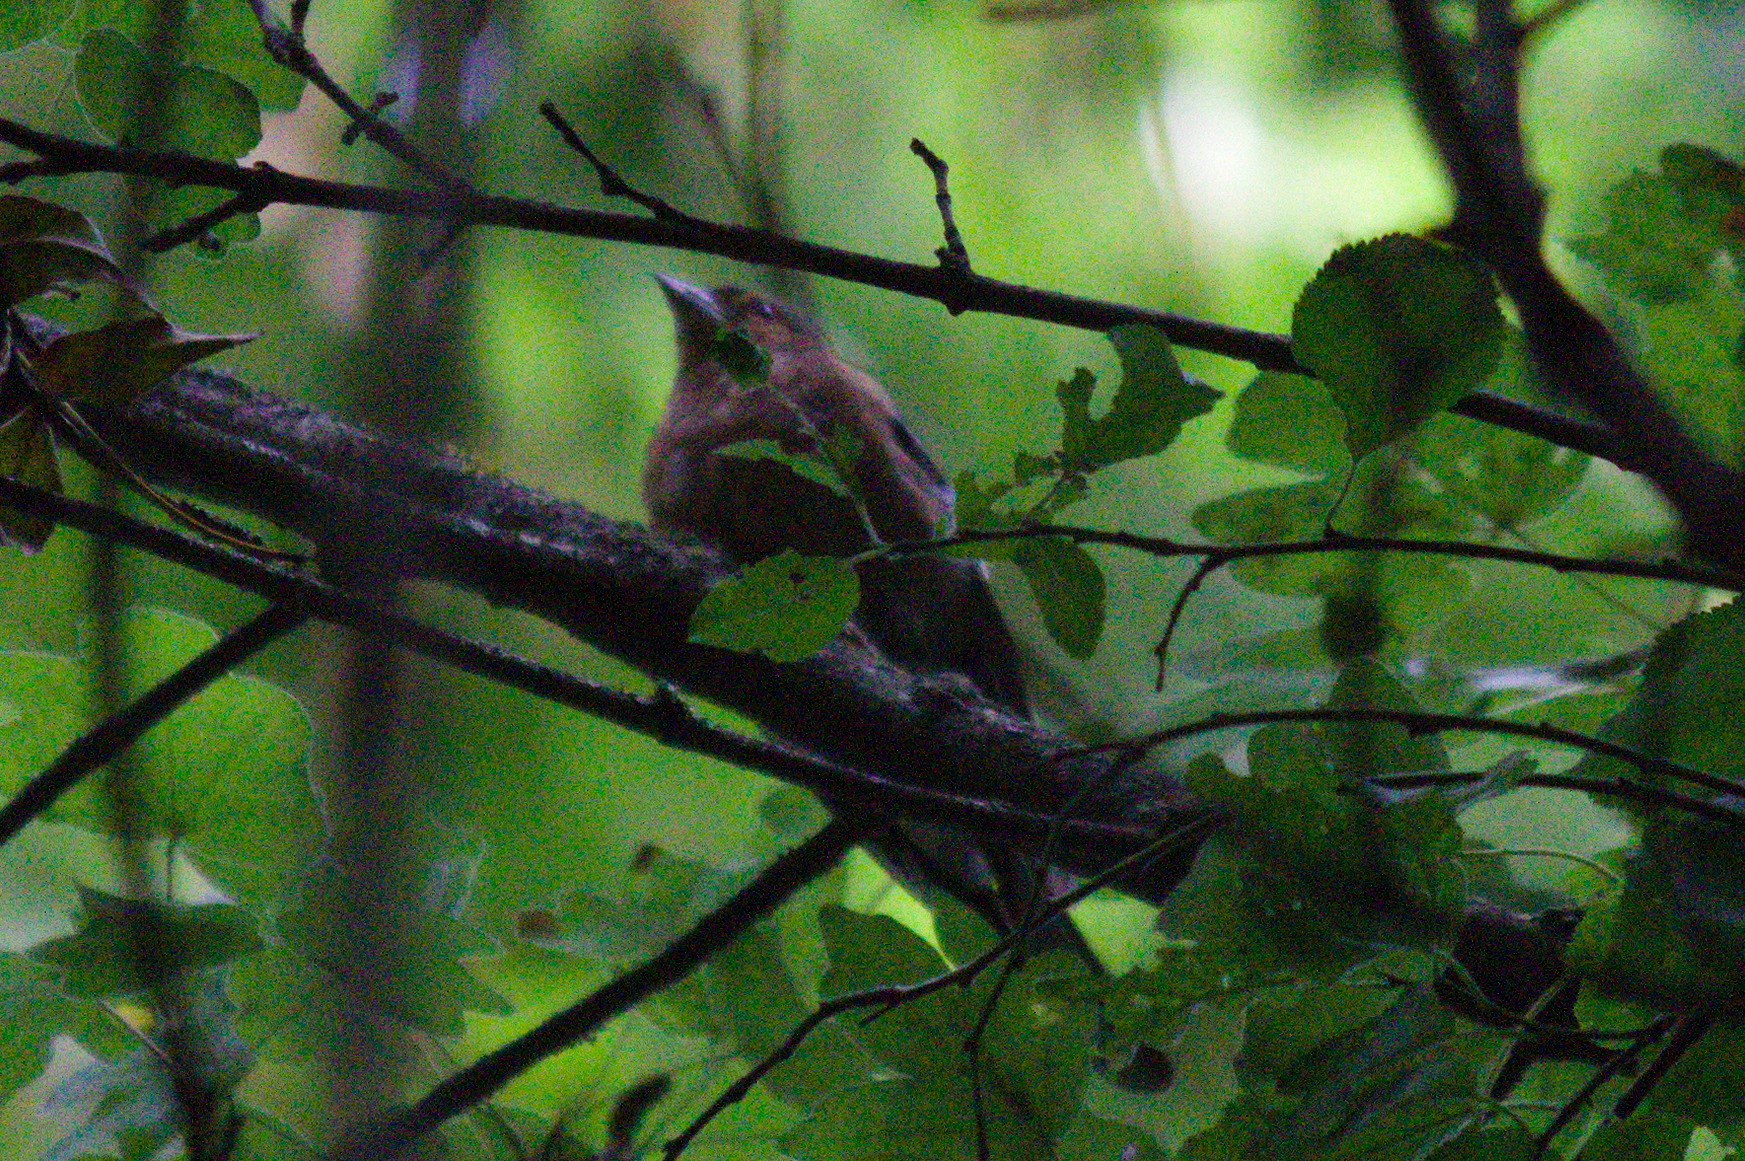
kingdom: Animalia
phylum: Chordata
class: Aves
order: Passeriformes
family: Fringillidae
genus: Fringilla
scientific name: Fringilla coelebs
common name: Common chaffinch
